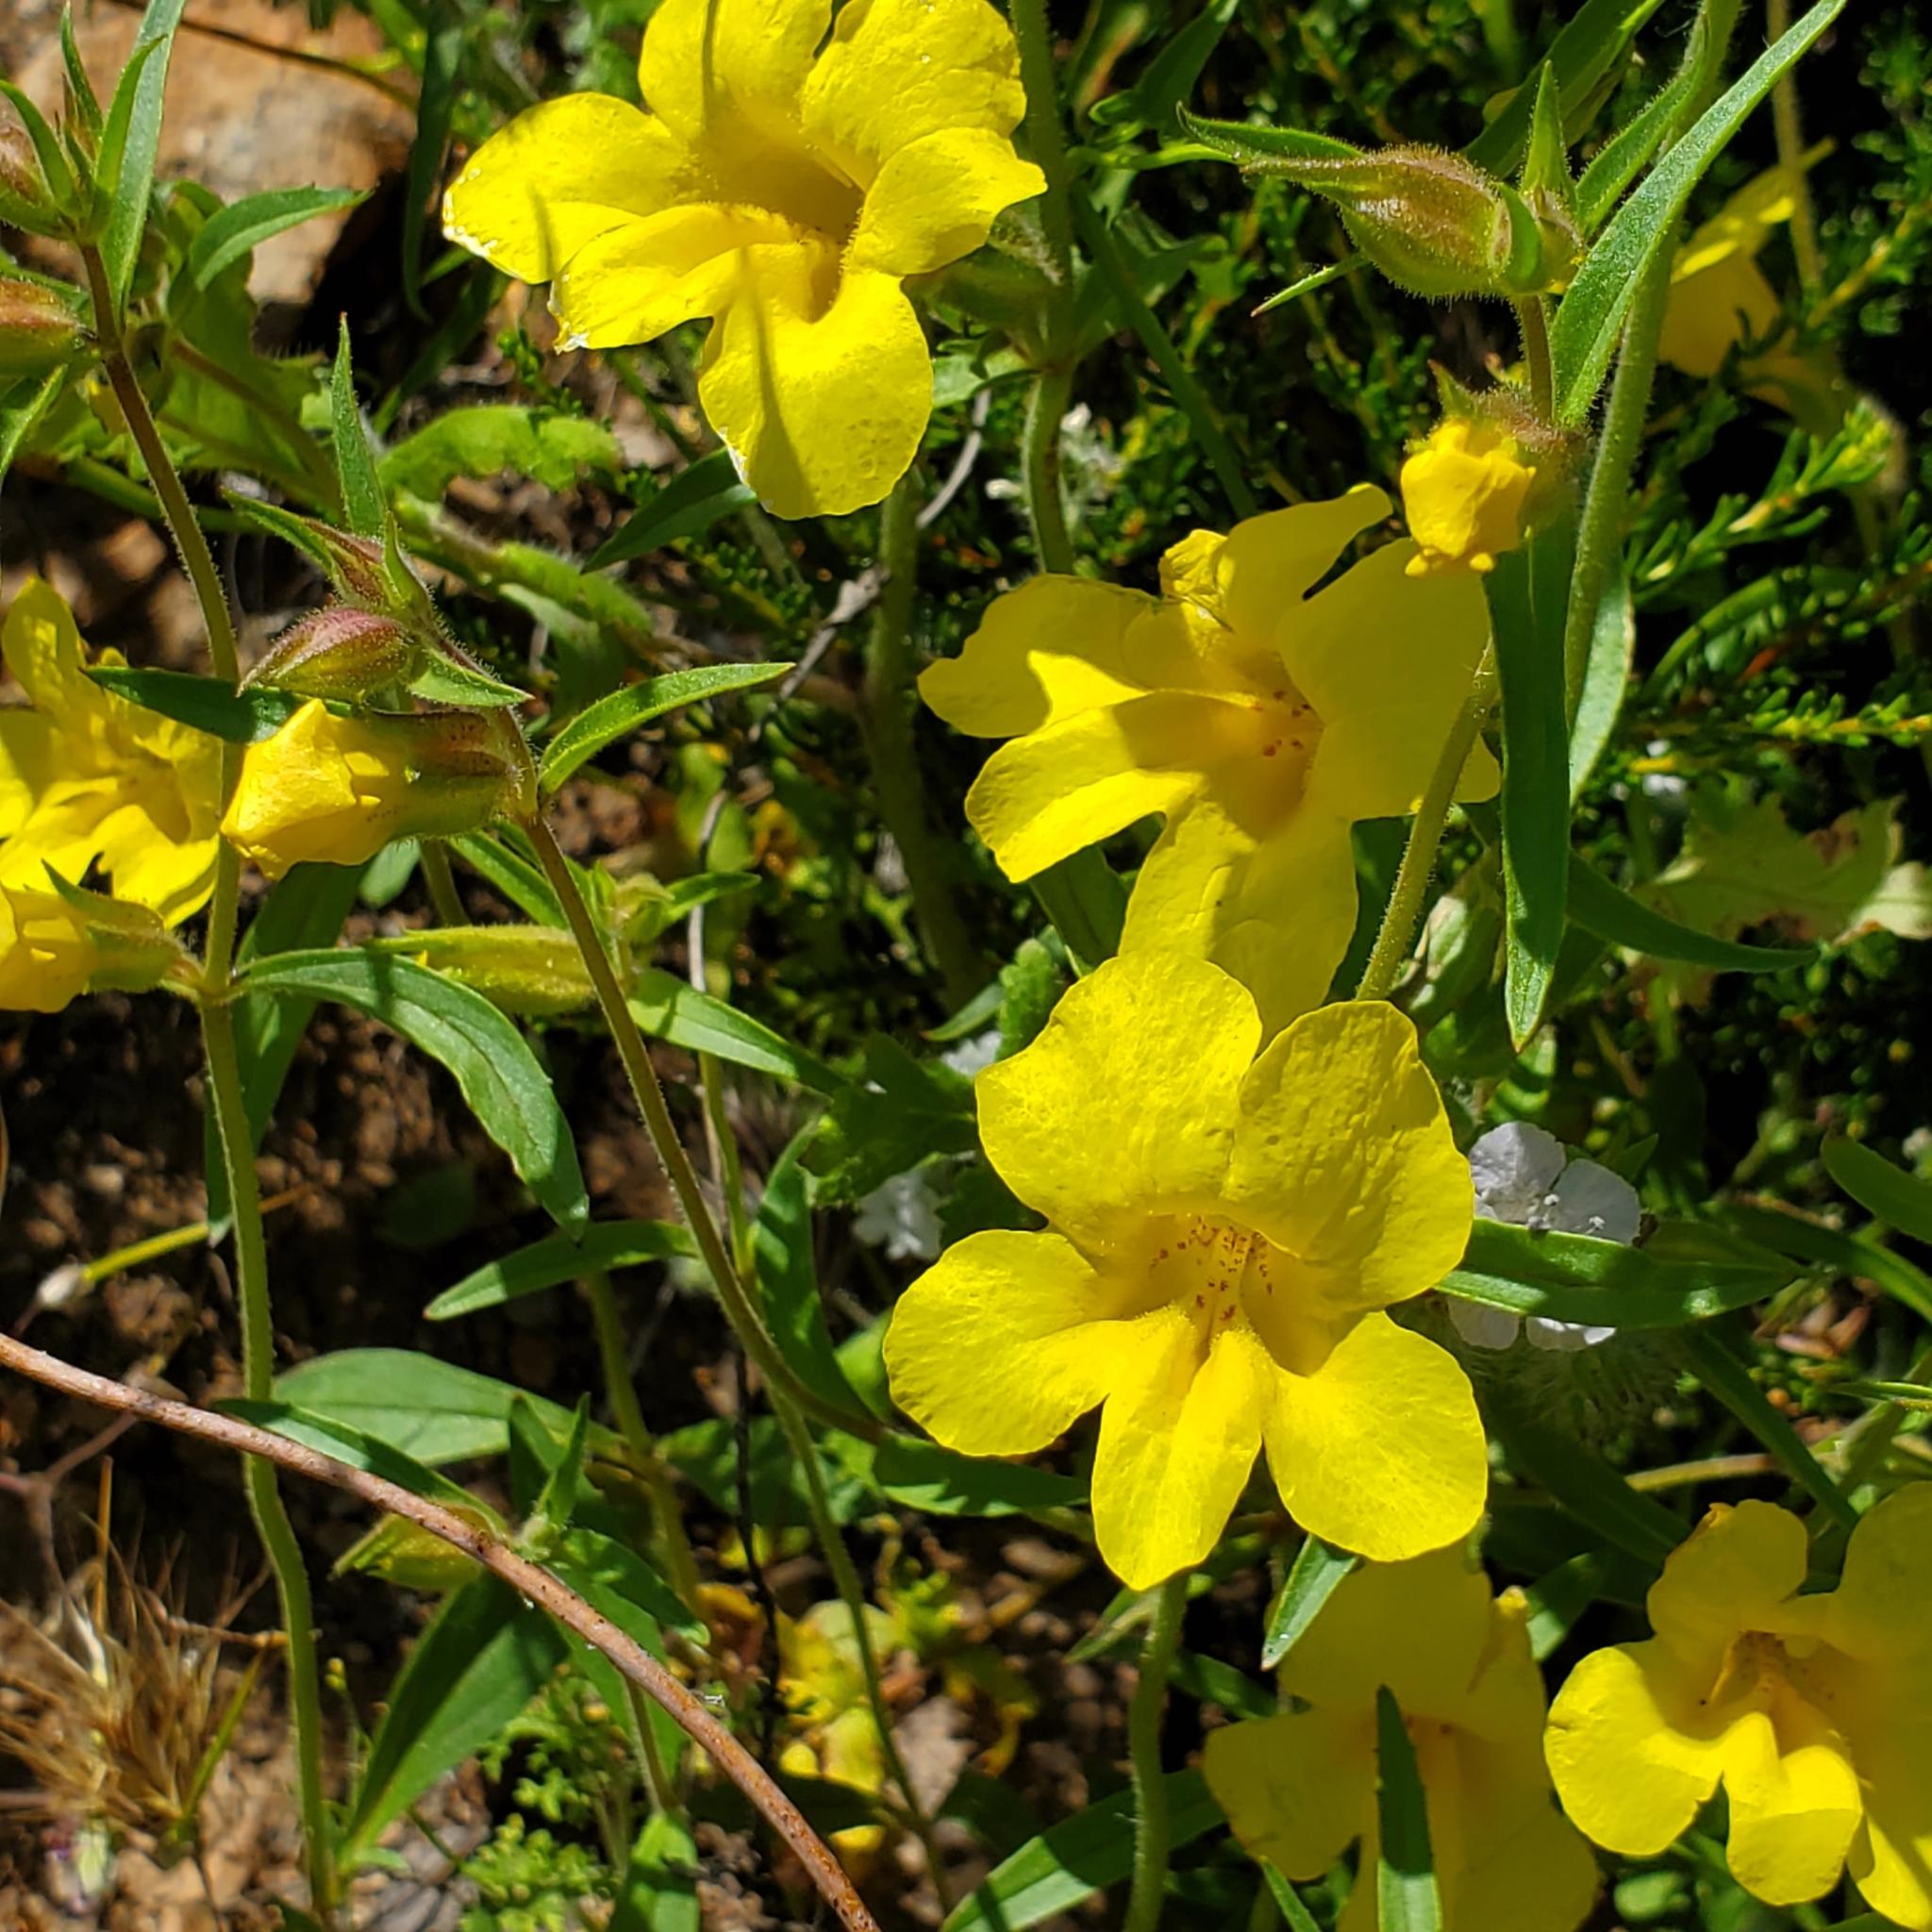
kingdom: Plantae
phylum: Tracheophyta
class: Magnoliopsida
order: Lamiales
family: Phrymaceae
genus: Diplacus
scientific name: Diplacus brevipes
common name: Wide-throat yellow monkey-flower
